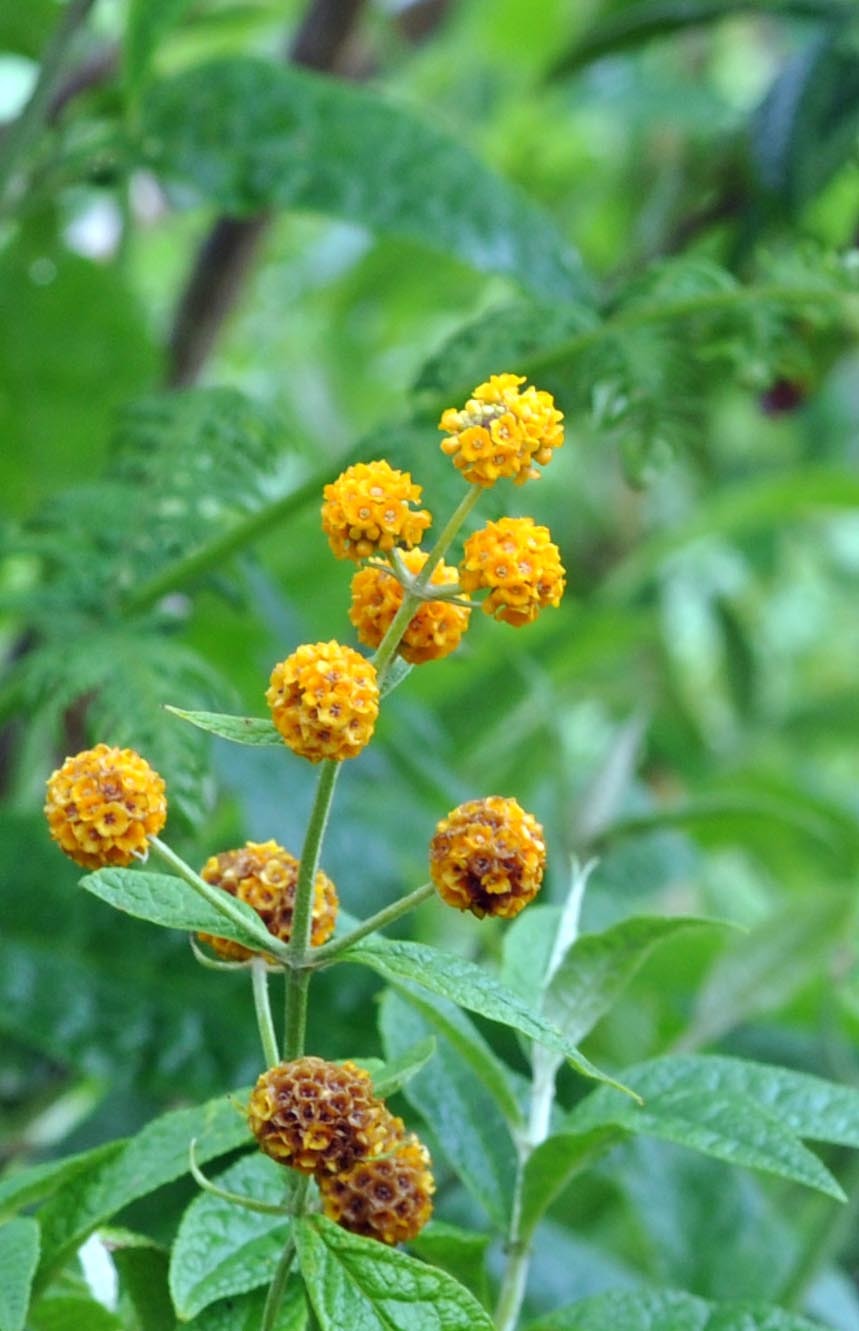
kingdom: Plantae
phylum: Tracheophyta
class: Magnoliopsida
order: Lamiales
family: Scrophulariaceae
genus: Buddleja
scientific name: Buddleja globosa
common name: Orange-ball-tree
